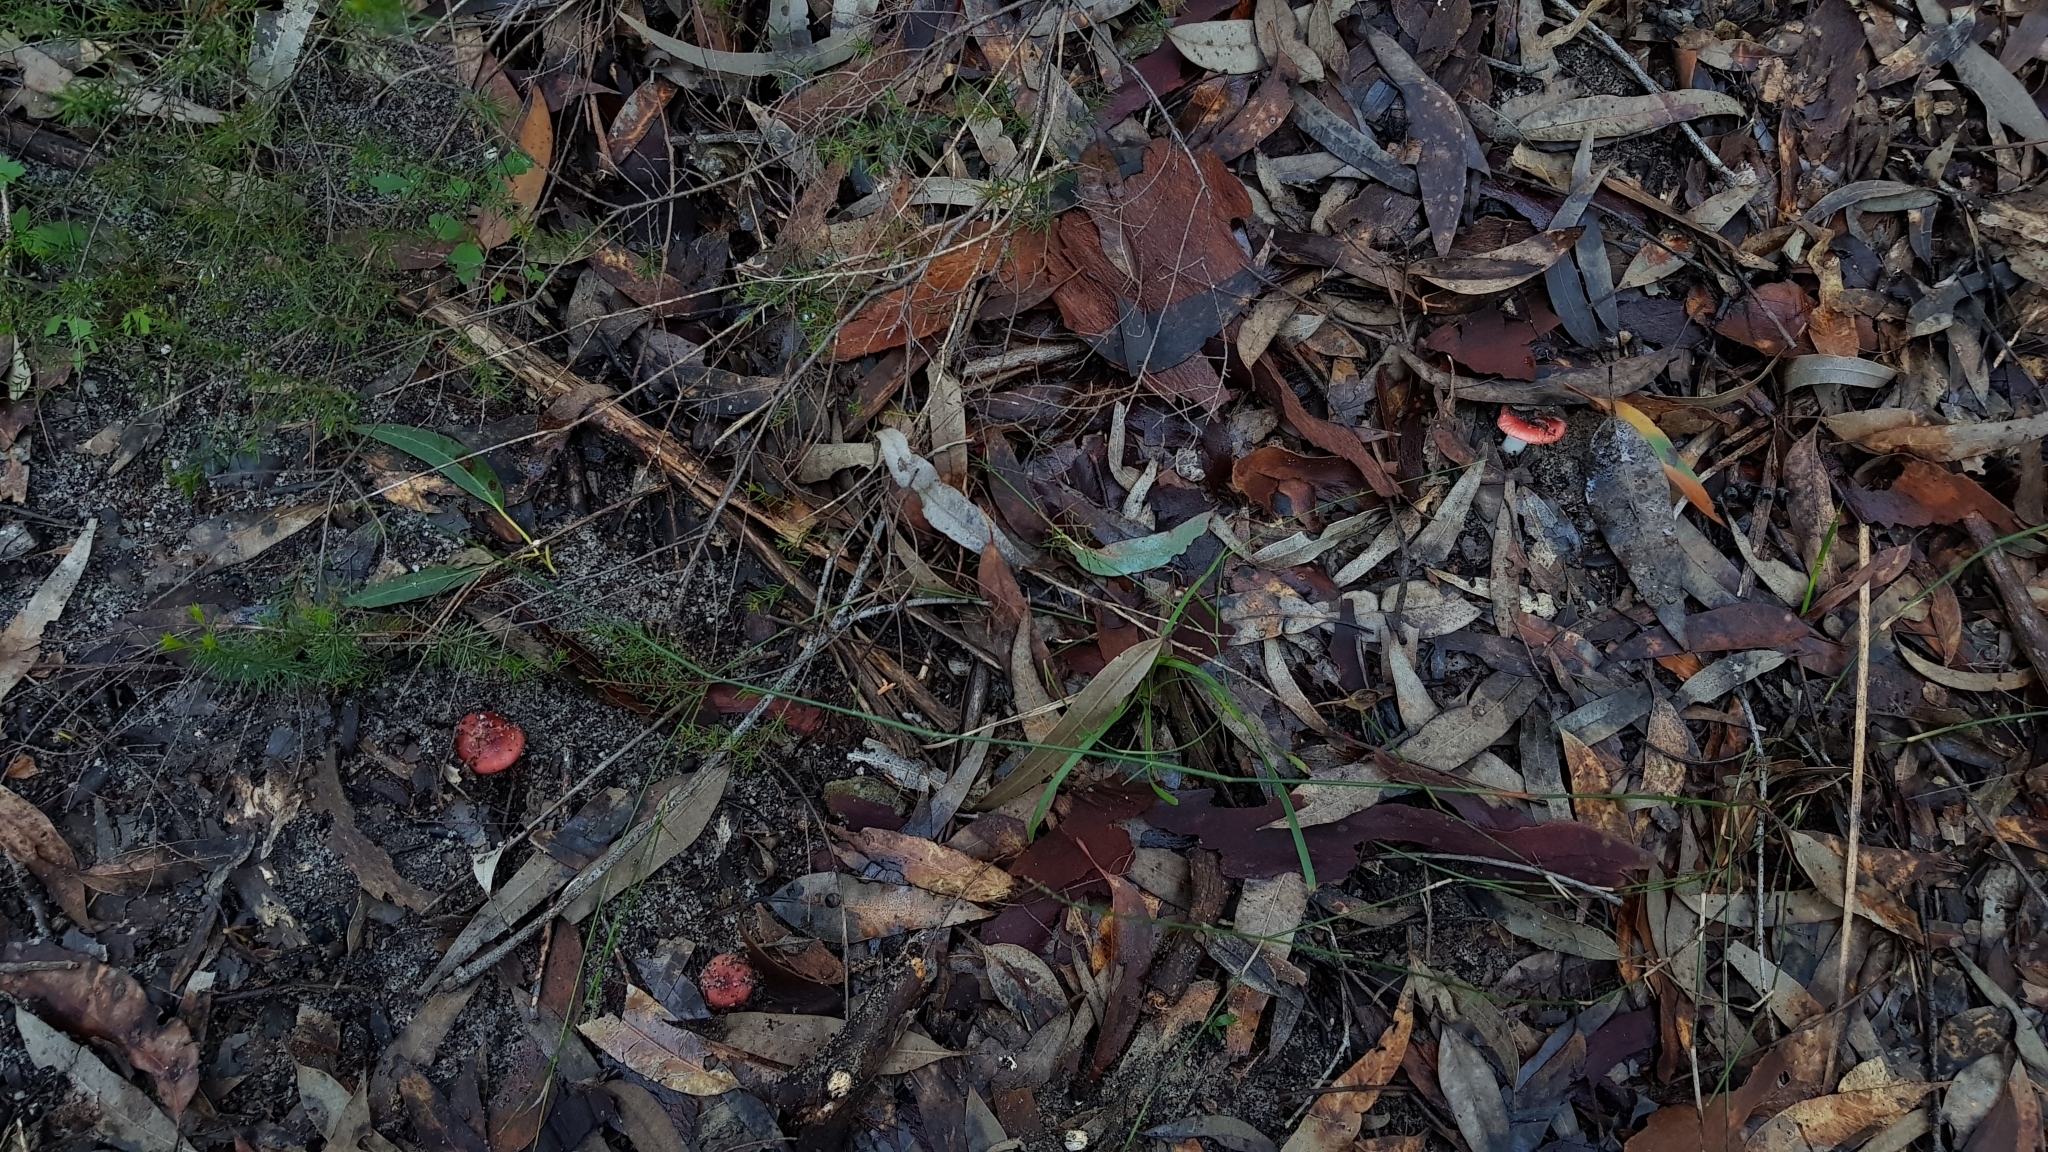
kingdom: Fungi
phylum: Basidiomycota
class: Agaricomycetes
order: Russulales
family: Russulaceae
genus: Russula
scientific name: Russula persanguinea
